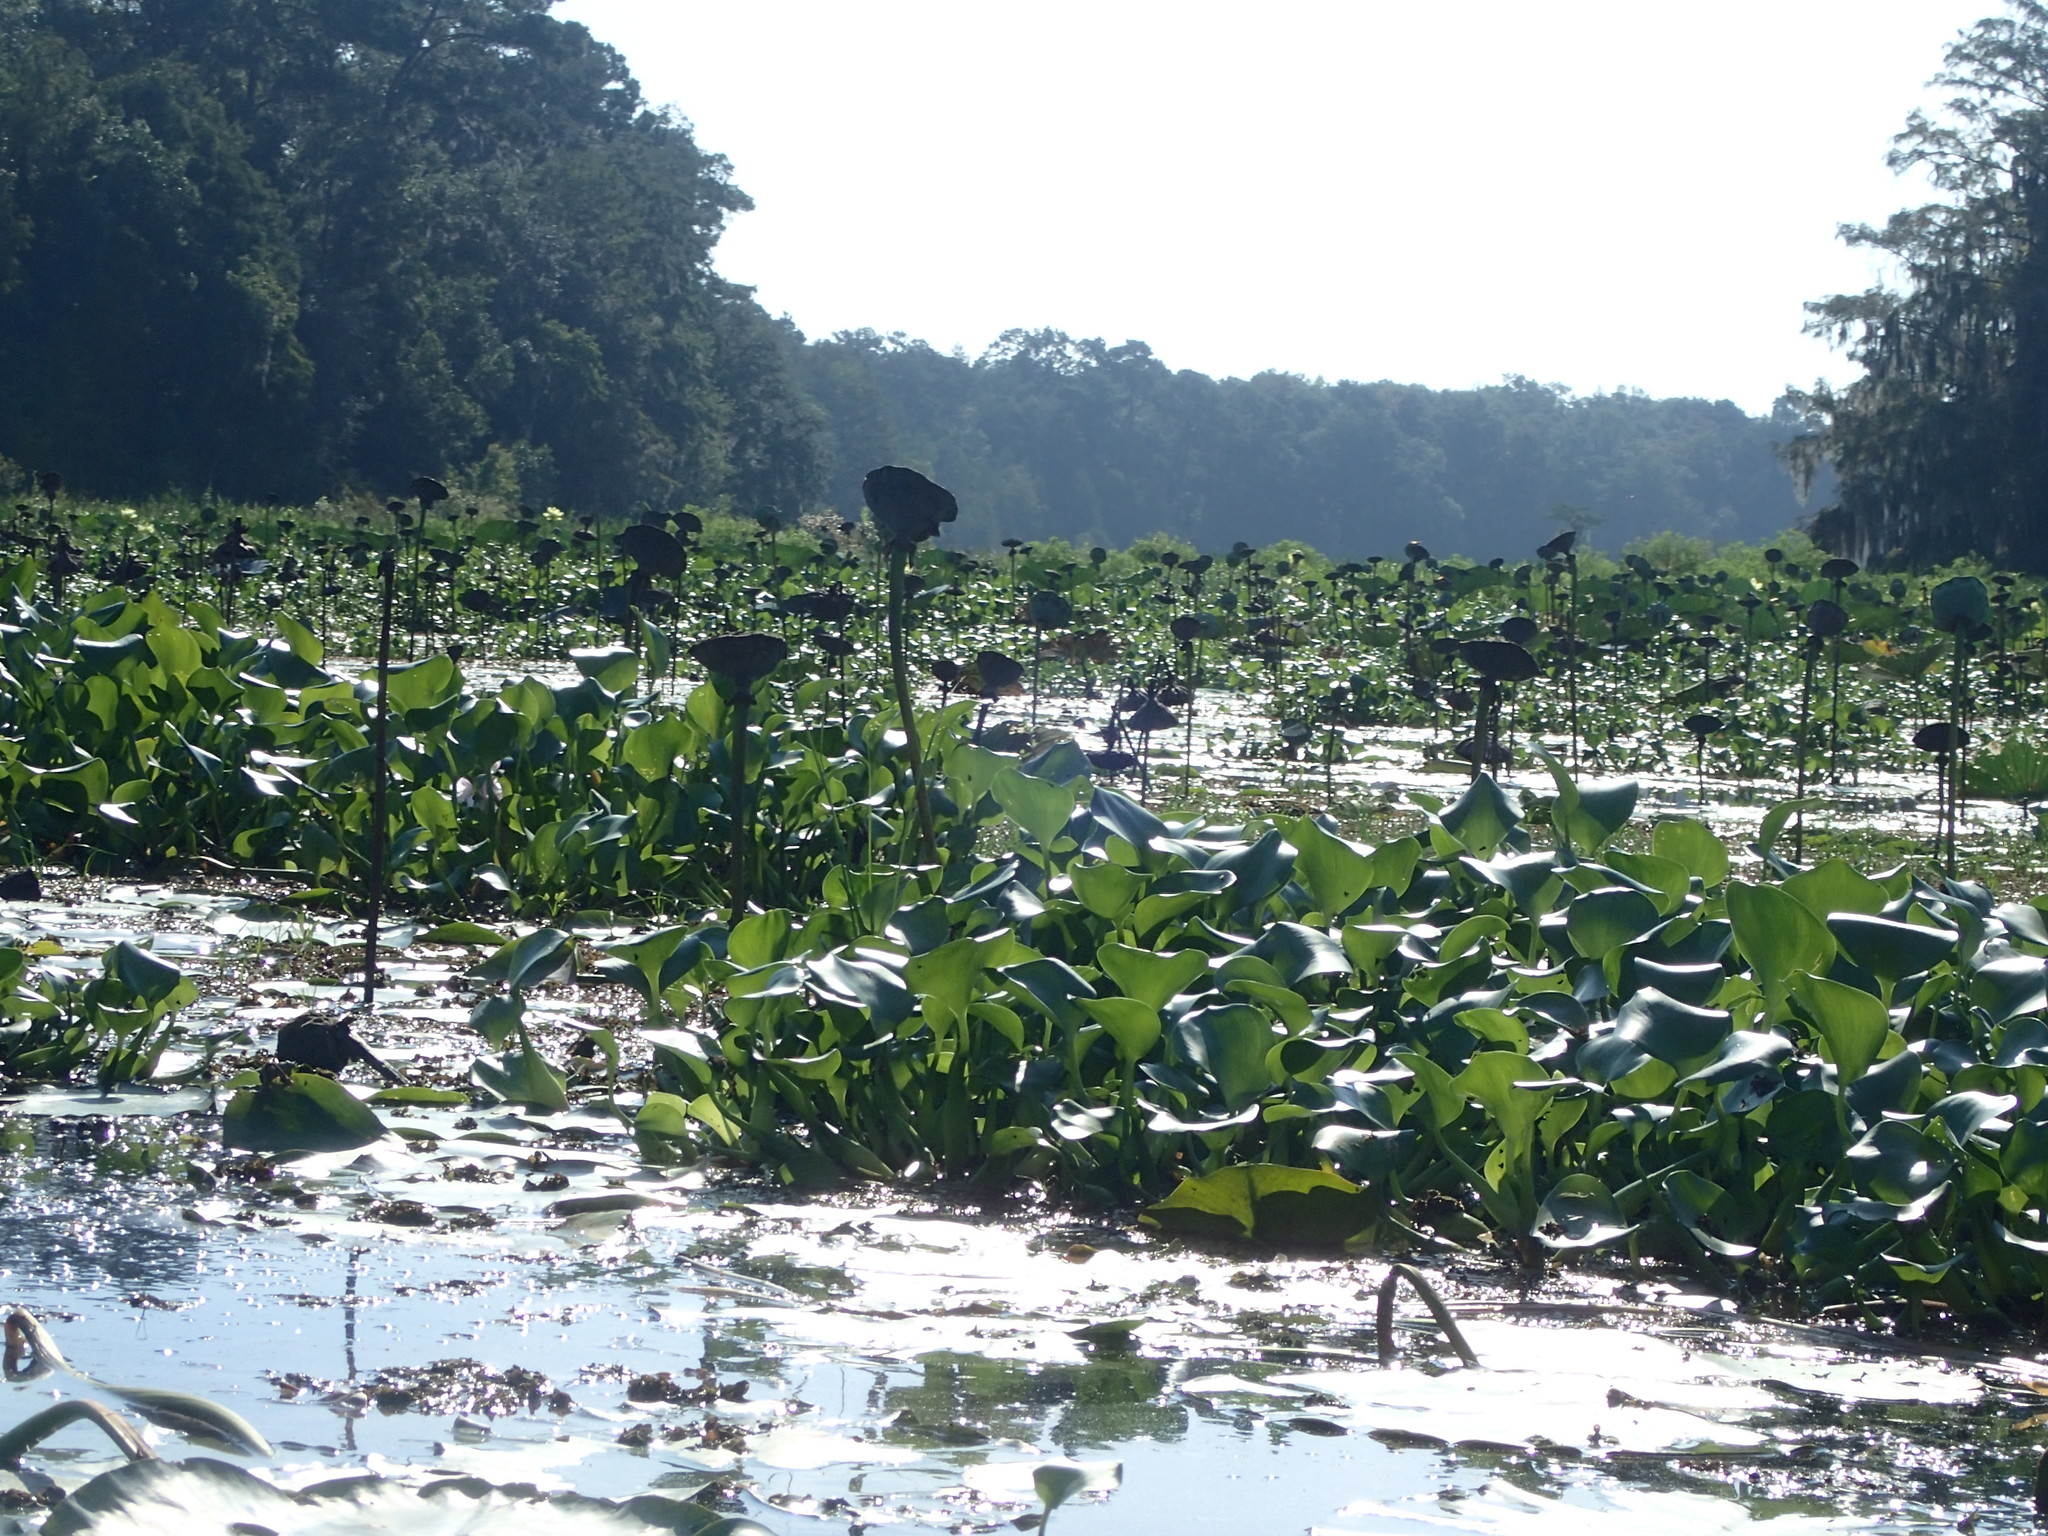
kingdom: Plantae
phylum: Tracheophyta
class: Magnoliopsida
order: Proteales
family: Nelumbonaceae
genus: Nelumbo
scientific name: Nelumbo lutea
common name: American lotus
